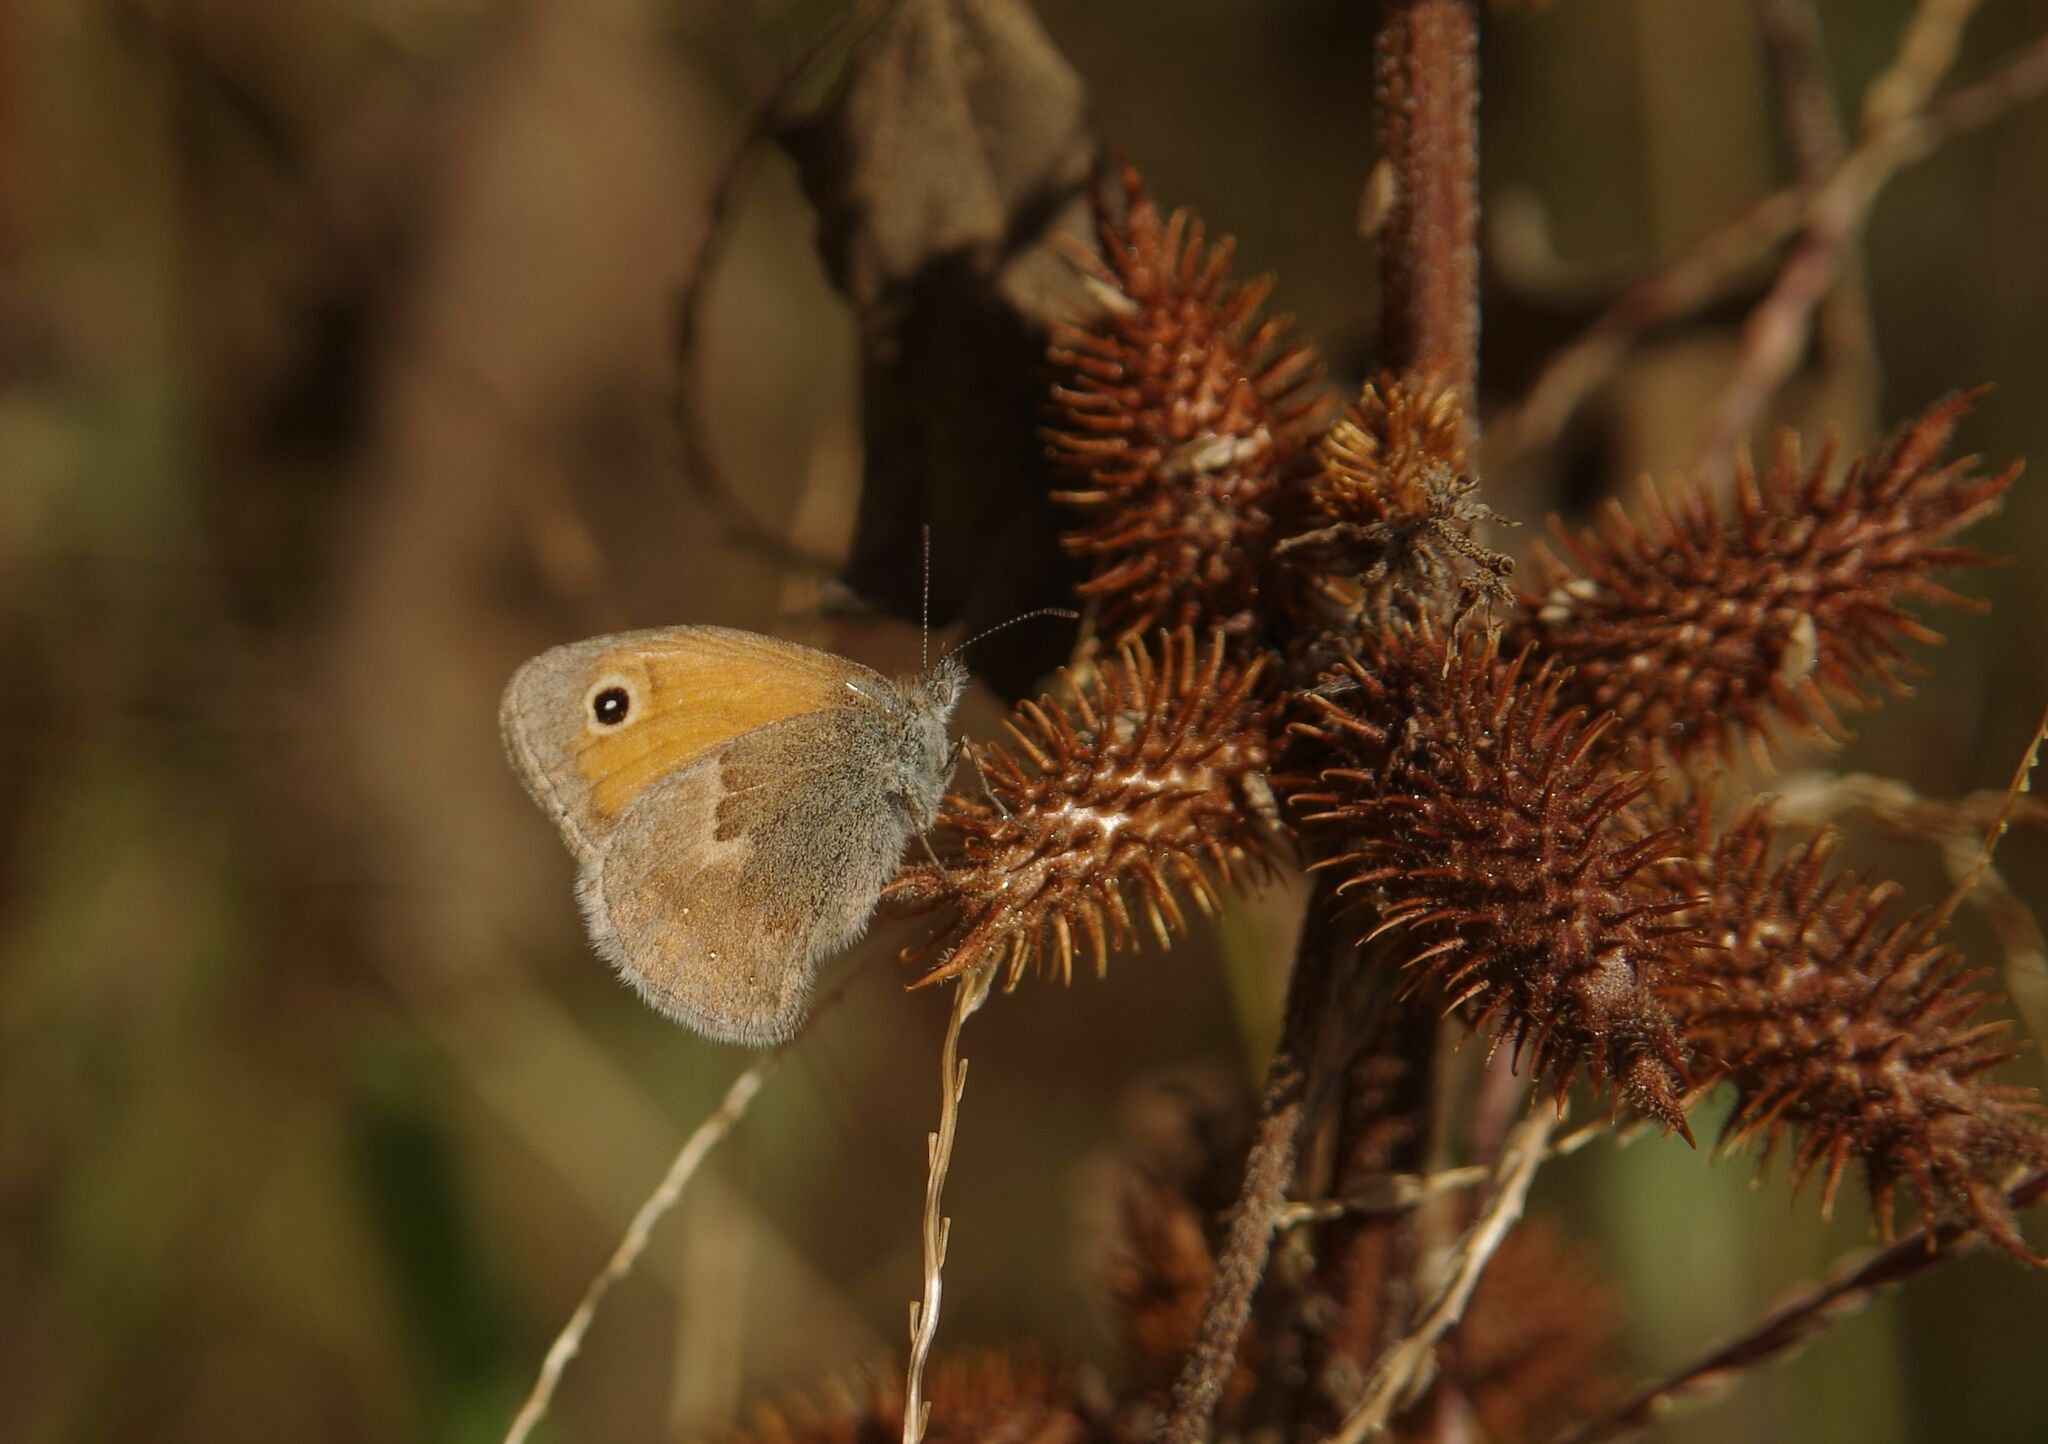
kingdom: Animalia
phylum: Arthropoda
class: Insecta
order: Lepidoptera
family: Nymphalidae
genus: Coenonympha
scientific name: Coenonympha pamphilus
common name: Small heath
